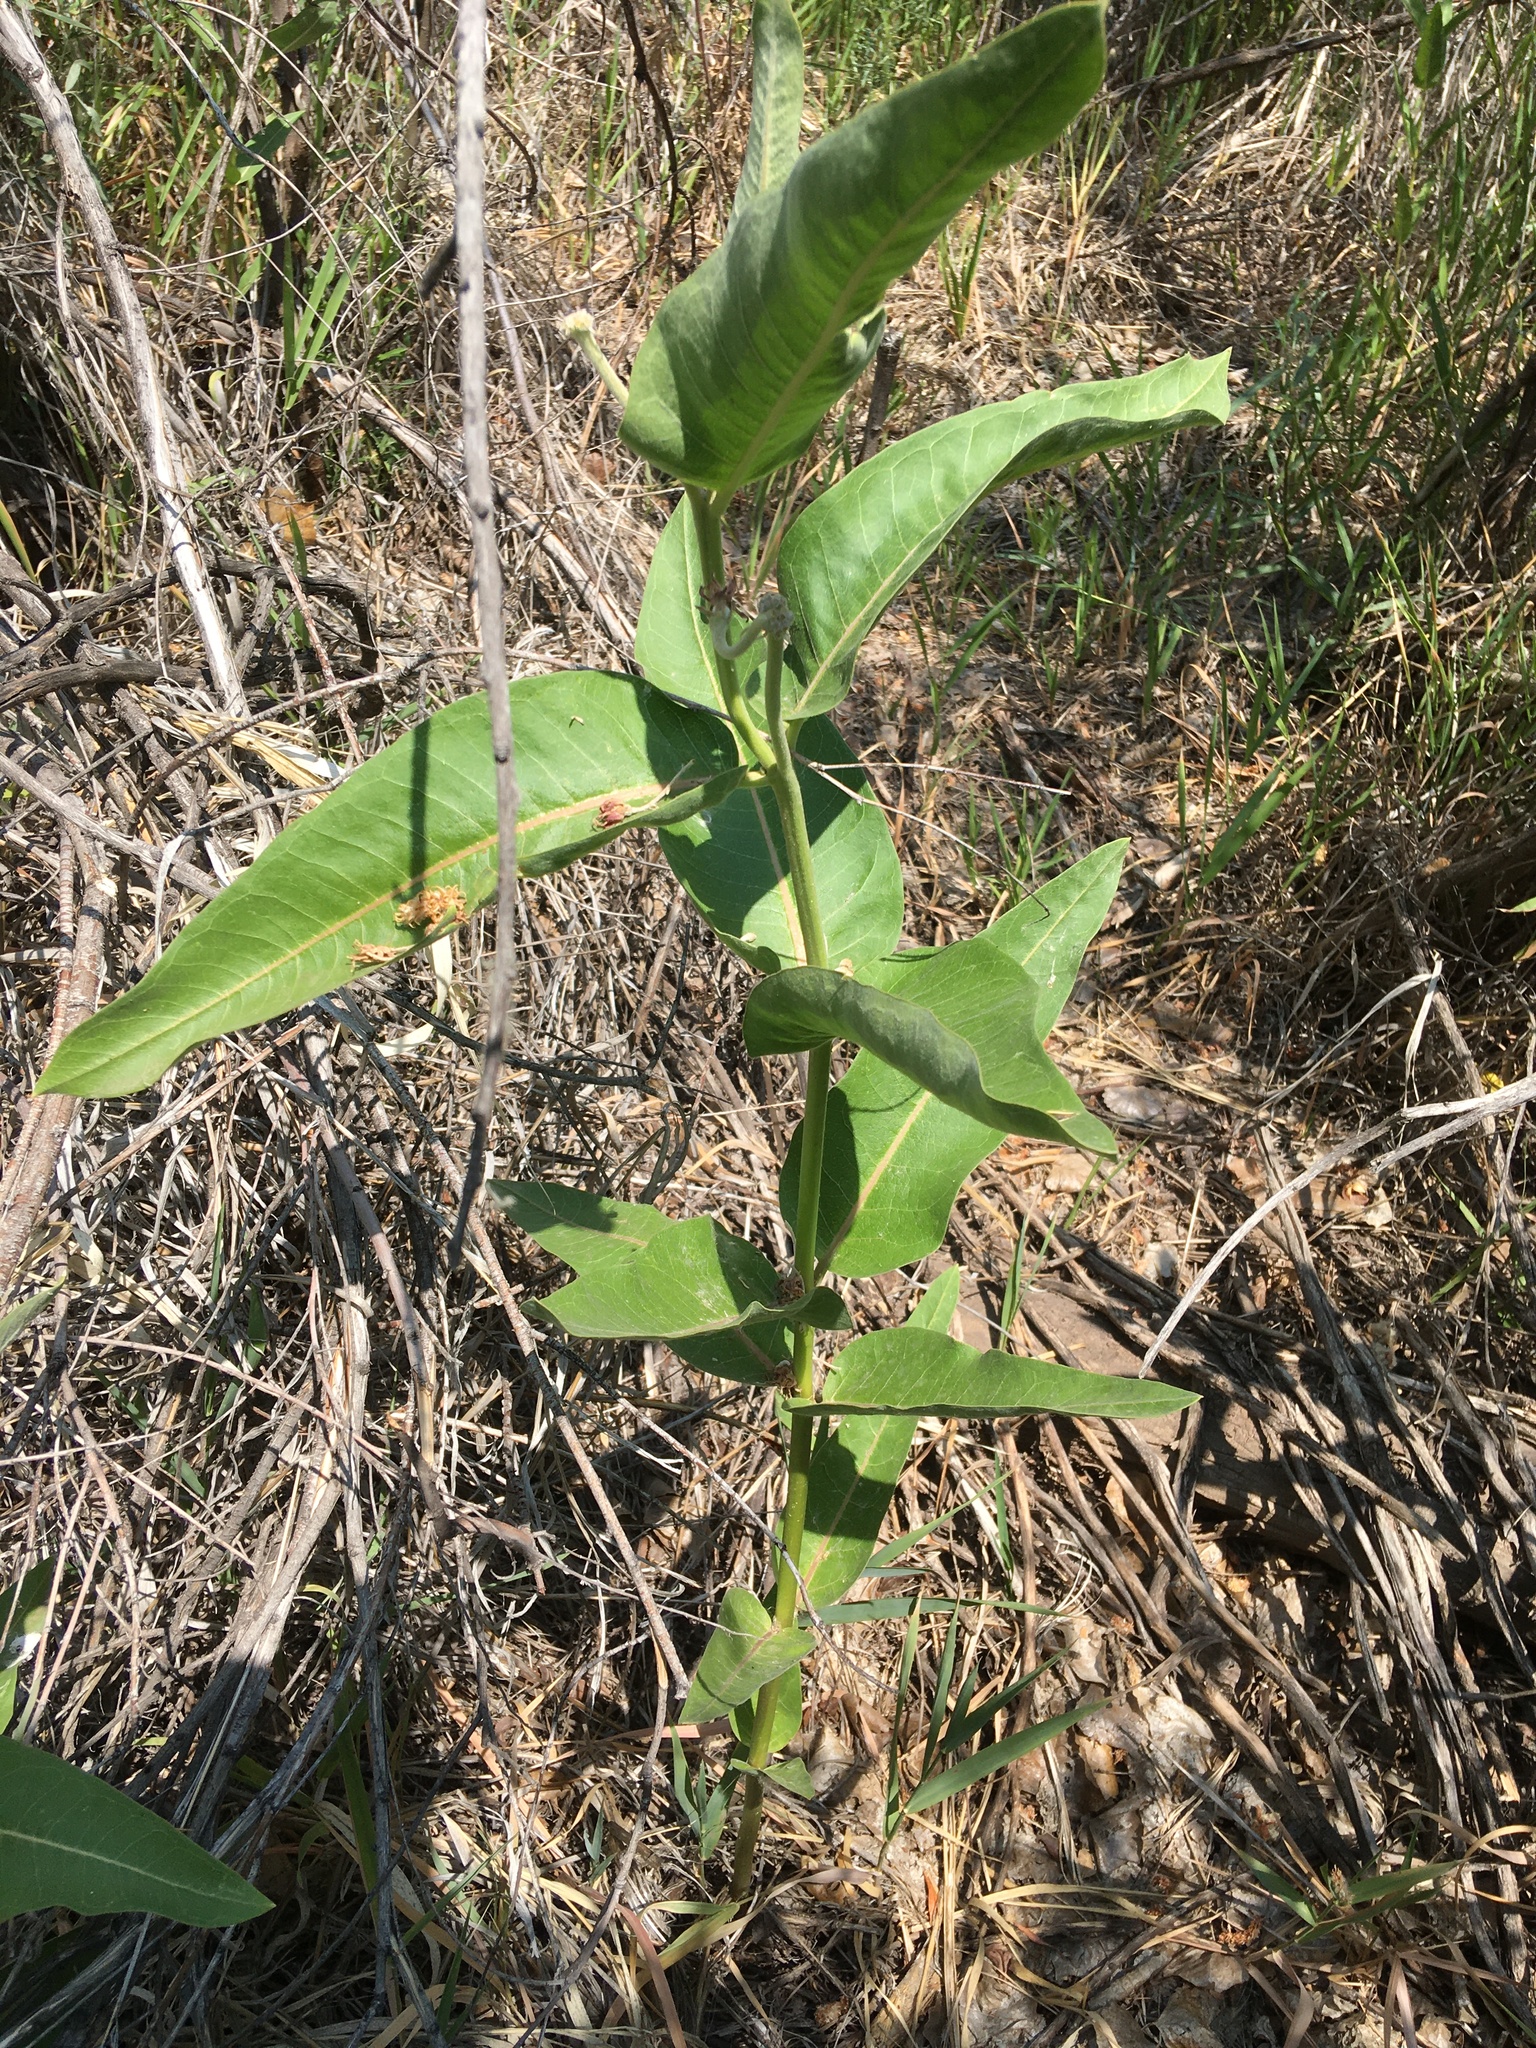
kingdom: Plantae
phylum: Tracheophyta
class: Magnoliopsida
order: Gentianales
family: Apocynaceae
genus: Asclepias
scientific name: Asclepias speciosa
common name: Showy milkweed
